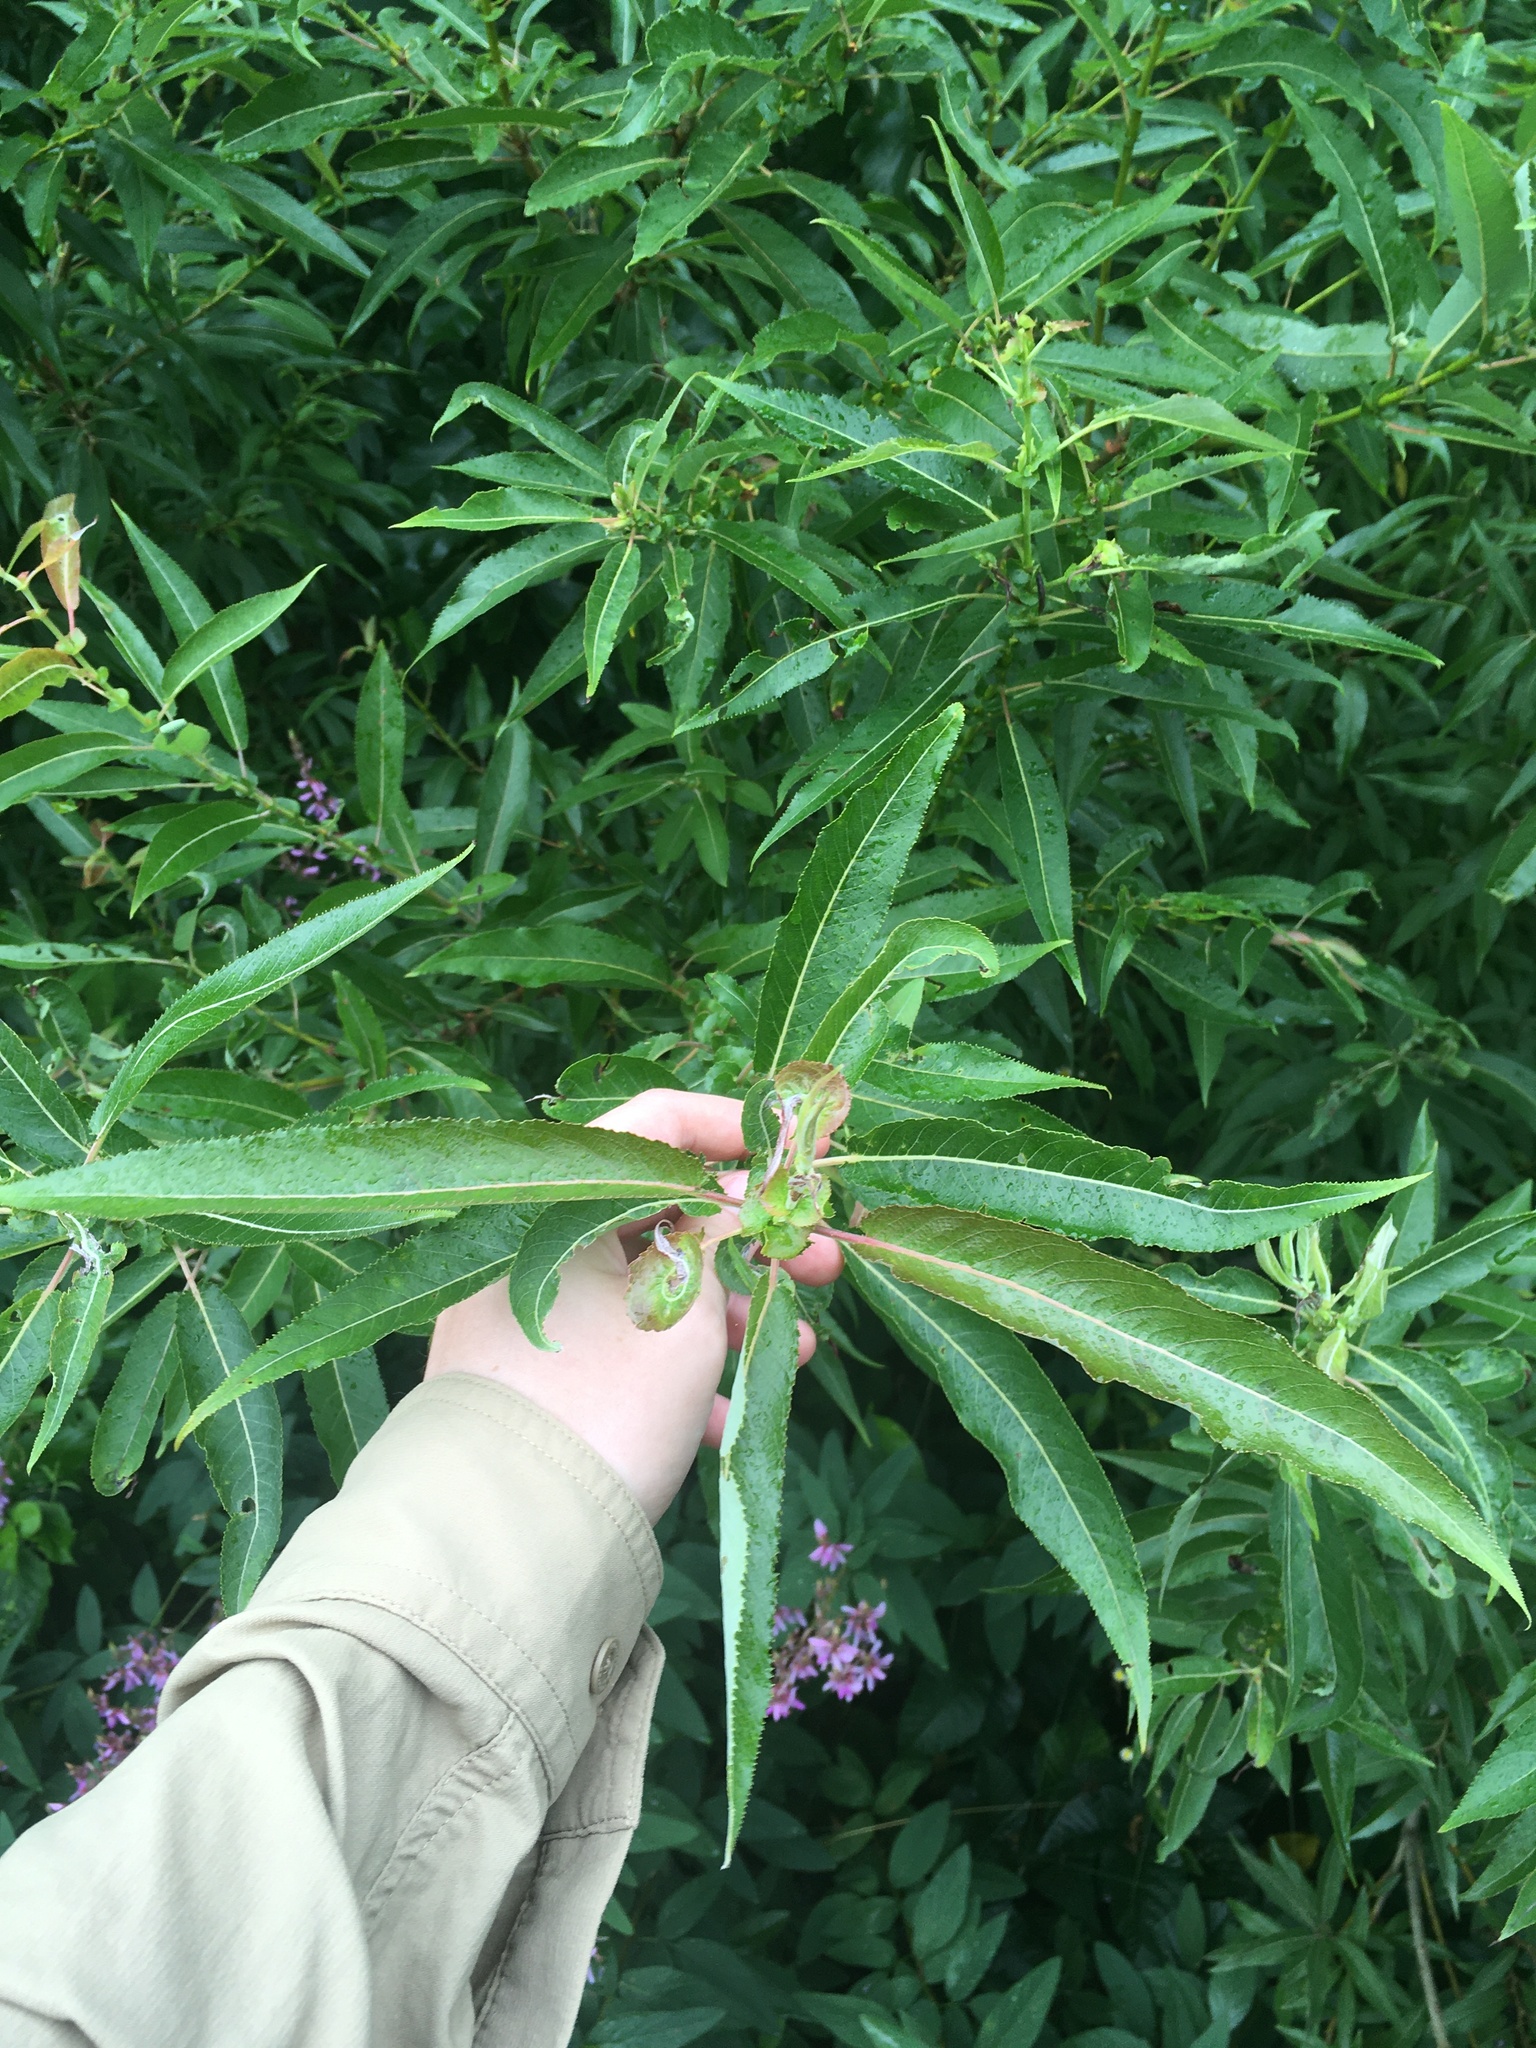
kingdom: Plantae
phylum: Tracheophyta
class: Magnoliopsida
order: Malpighiales
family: Salicaceae
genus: Salix
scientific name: Salix nigra
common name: Black willow
